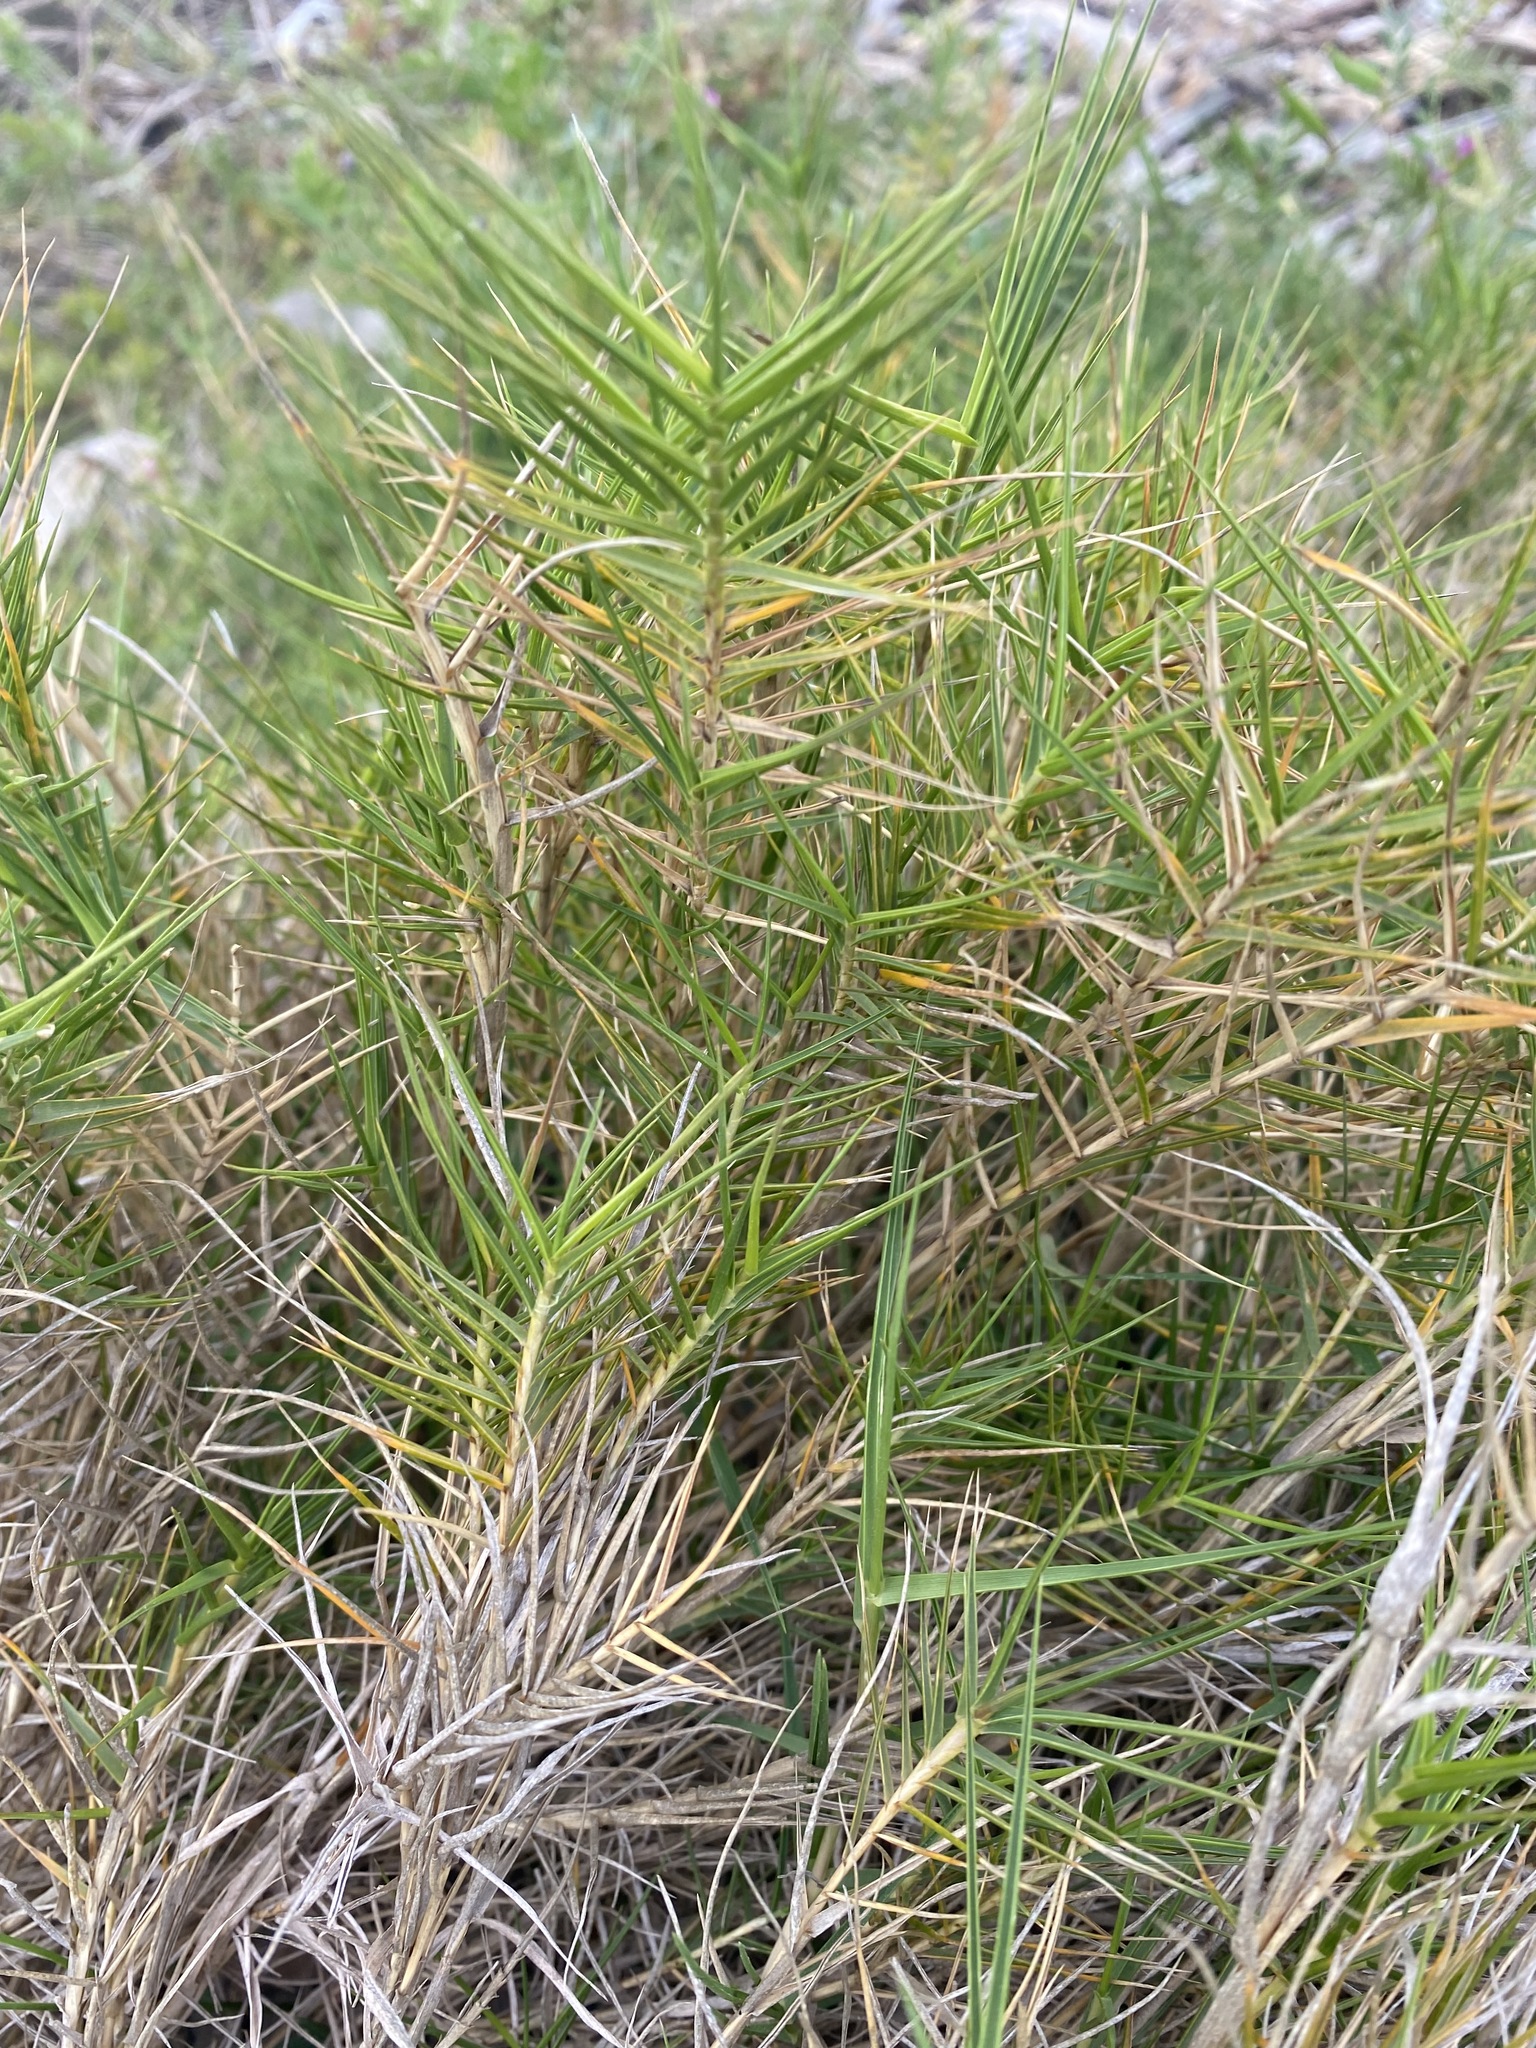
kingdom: Plantae
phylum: Tracheophyta
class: Liliopsida
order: Poales
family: Poaceae
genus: Distichlis
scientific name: Distichlis distichophylla
